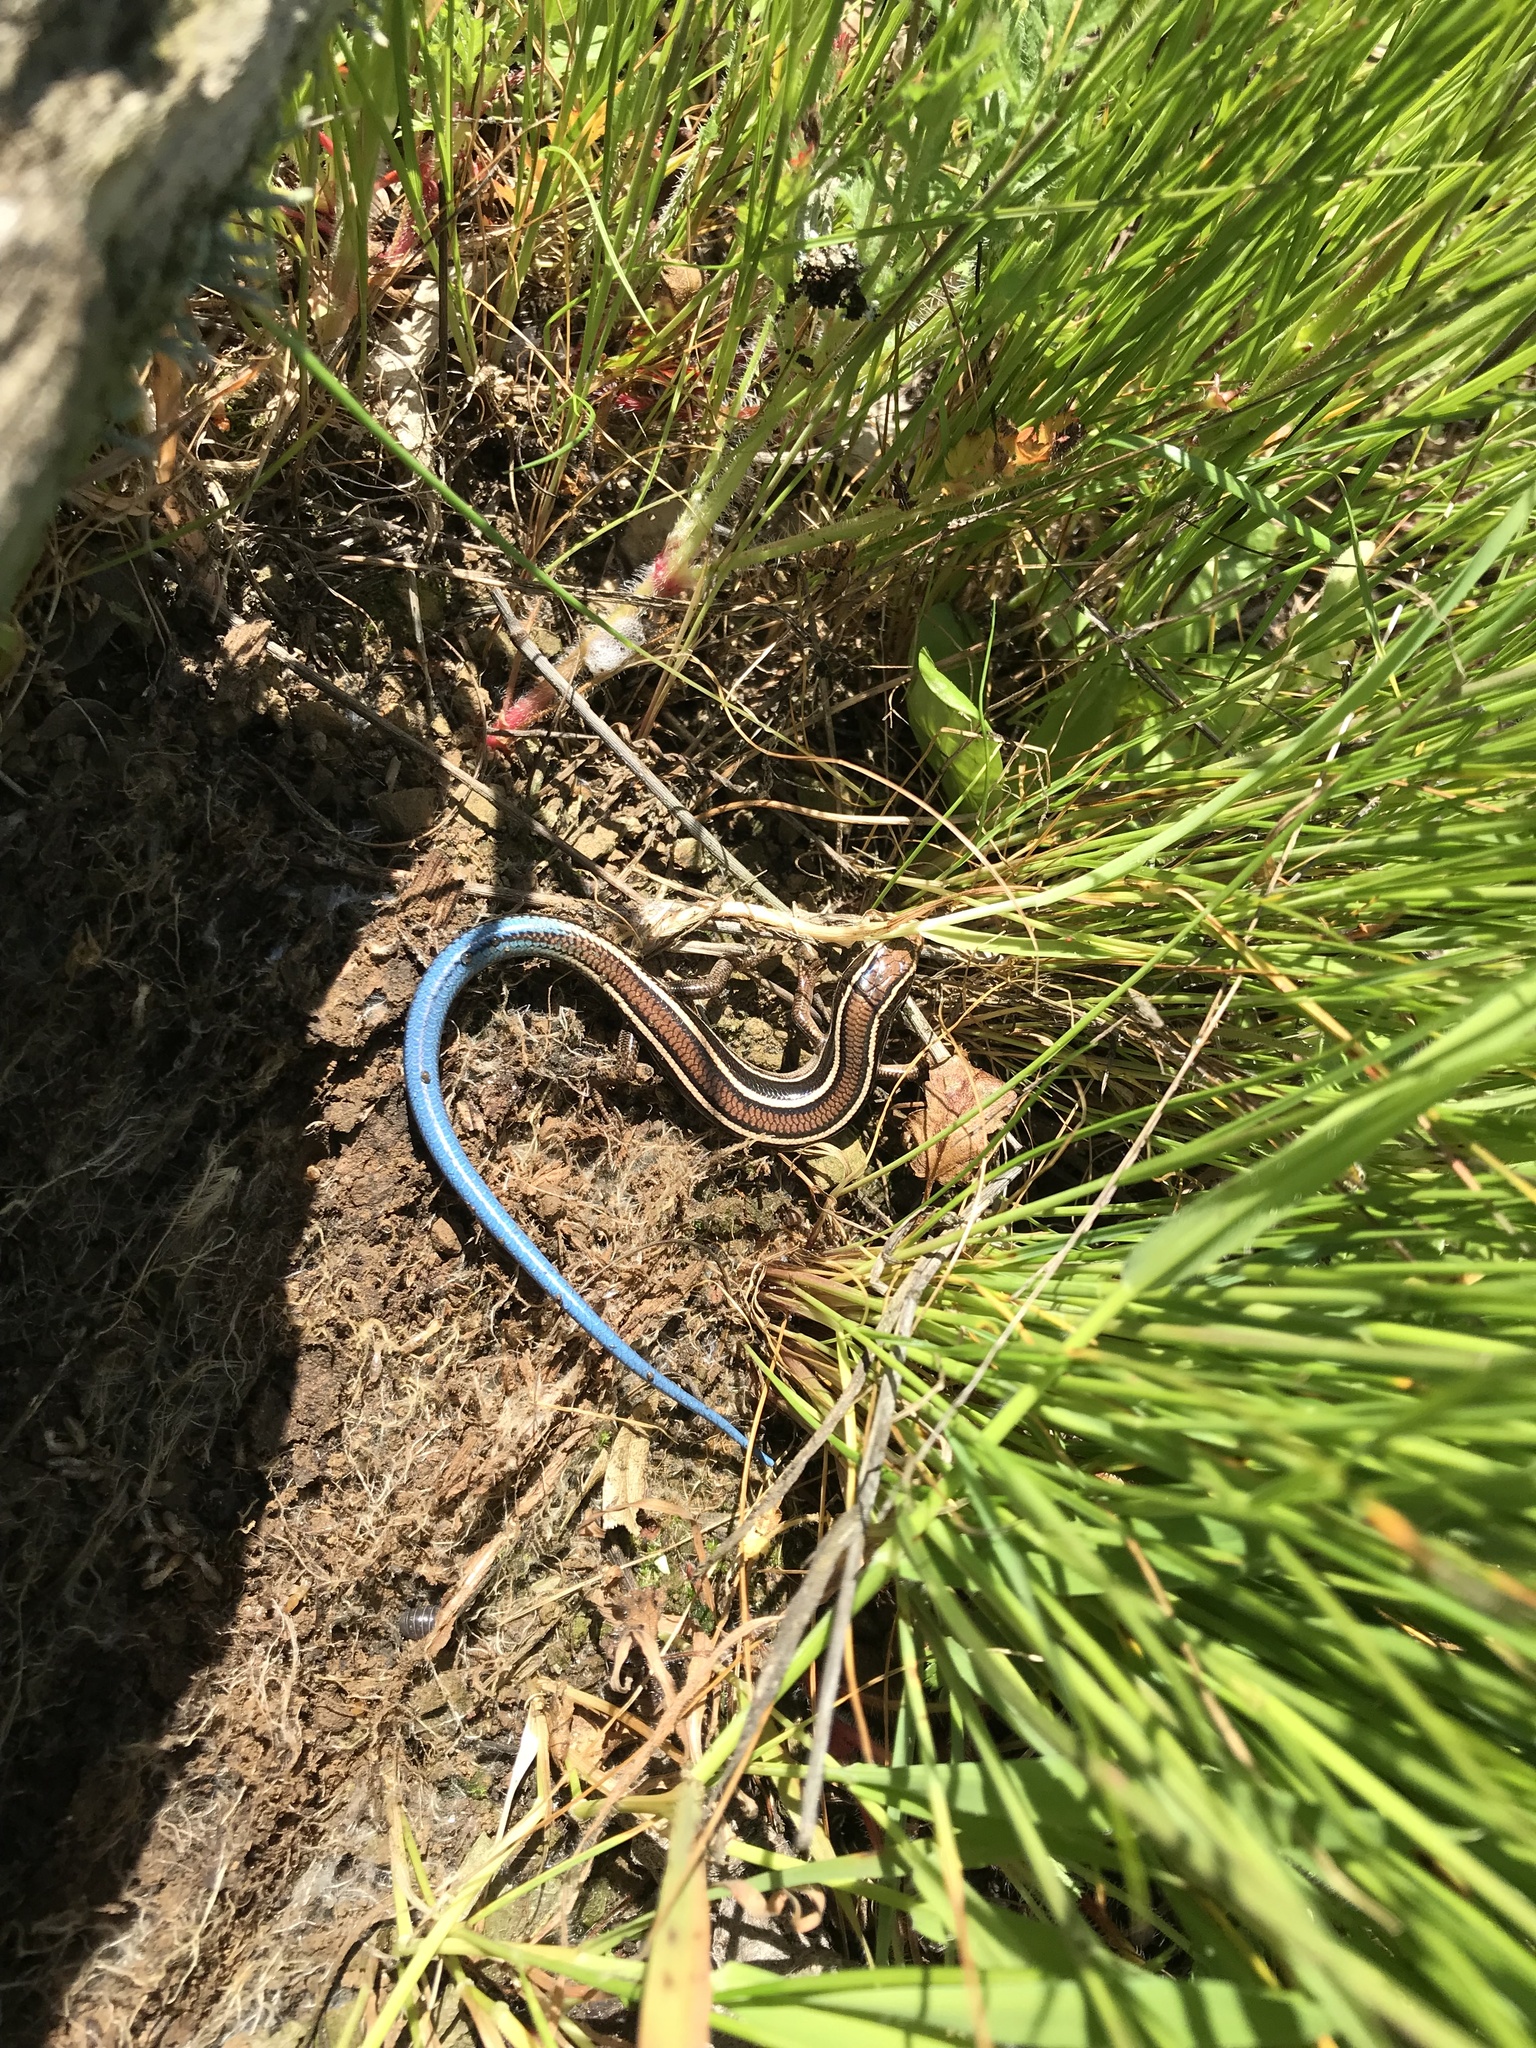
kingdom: Animalia
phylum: Chordata
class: Squamata
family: Scincidae
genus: Plestiodon
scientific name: Plestiodon skiltonianus
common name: Coronado island skink [interparietalis]
